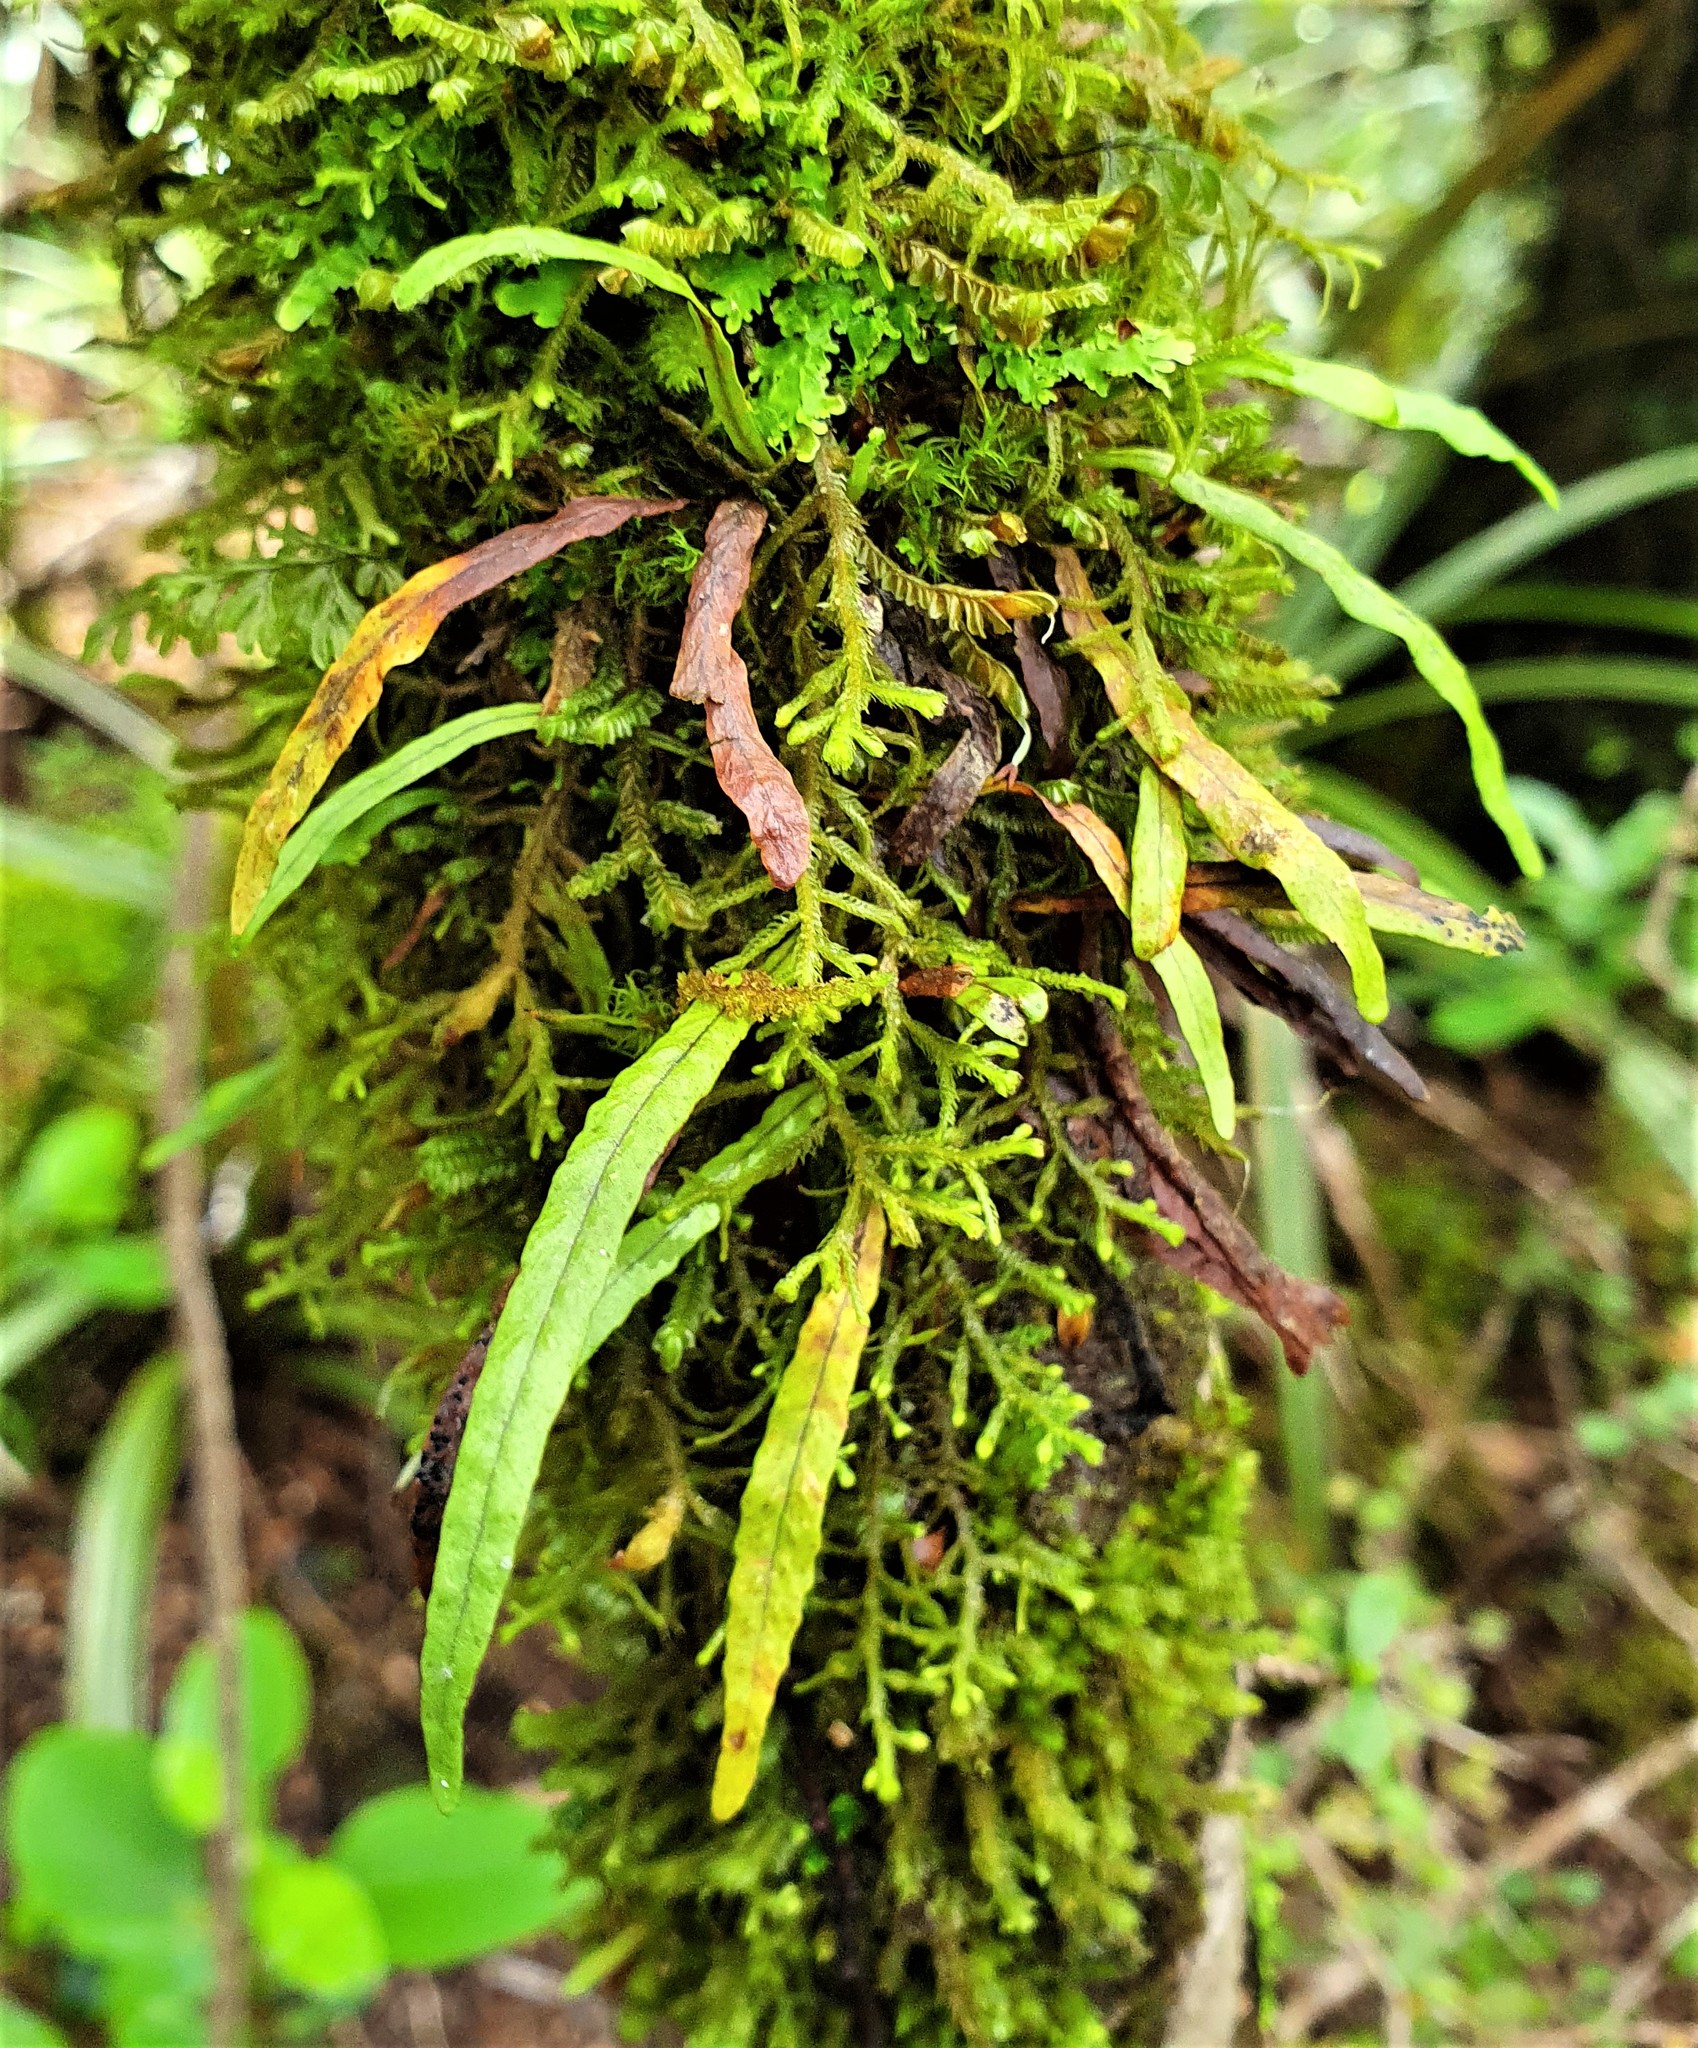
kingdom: Plantae
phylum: Tracheophyta
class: Polypodiopsida
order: Polypodiales
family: Polypodiaceae
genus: Notogrammitis
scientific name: Notogrammitis angustifolia
